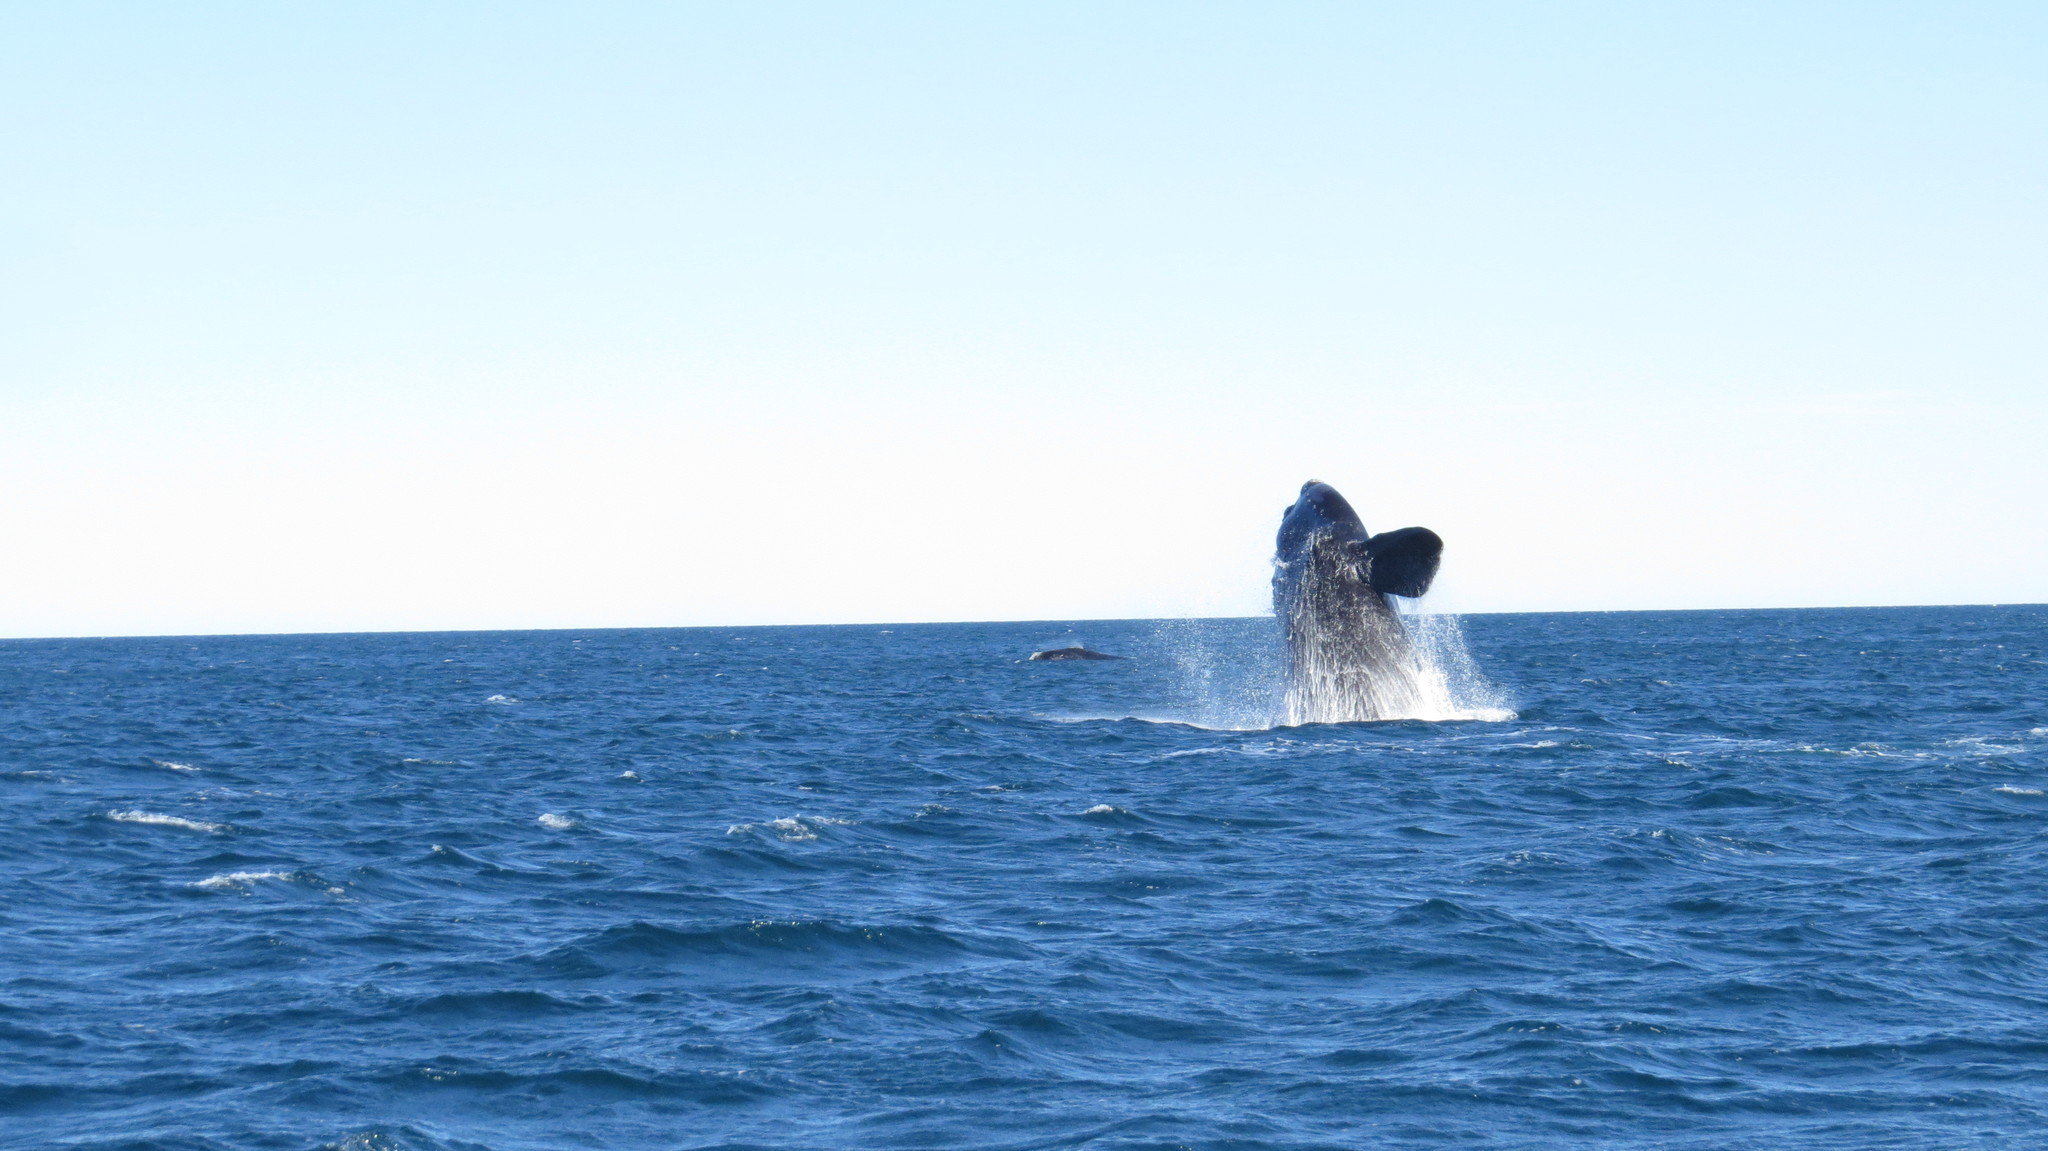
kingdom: Animalia
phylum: Chordata
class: Mammalia
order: Cetacea
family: Balaenidae
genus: Eubalaena
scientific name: Eubalaena australis
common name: Southern right whale
